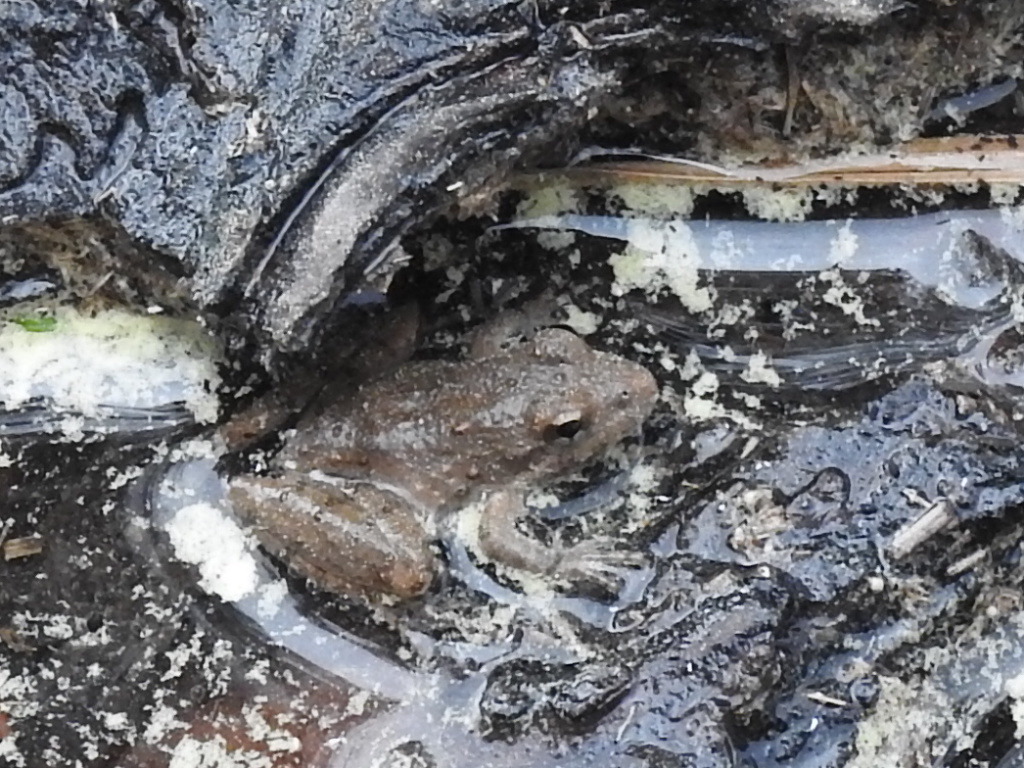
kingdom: Animalia
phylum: Chordata
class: Amphibia
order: Anura
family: Hylidae
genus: Acris
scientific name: Acris blanchardi
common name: Blanchard's cricket frog
